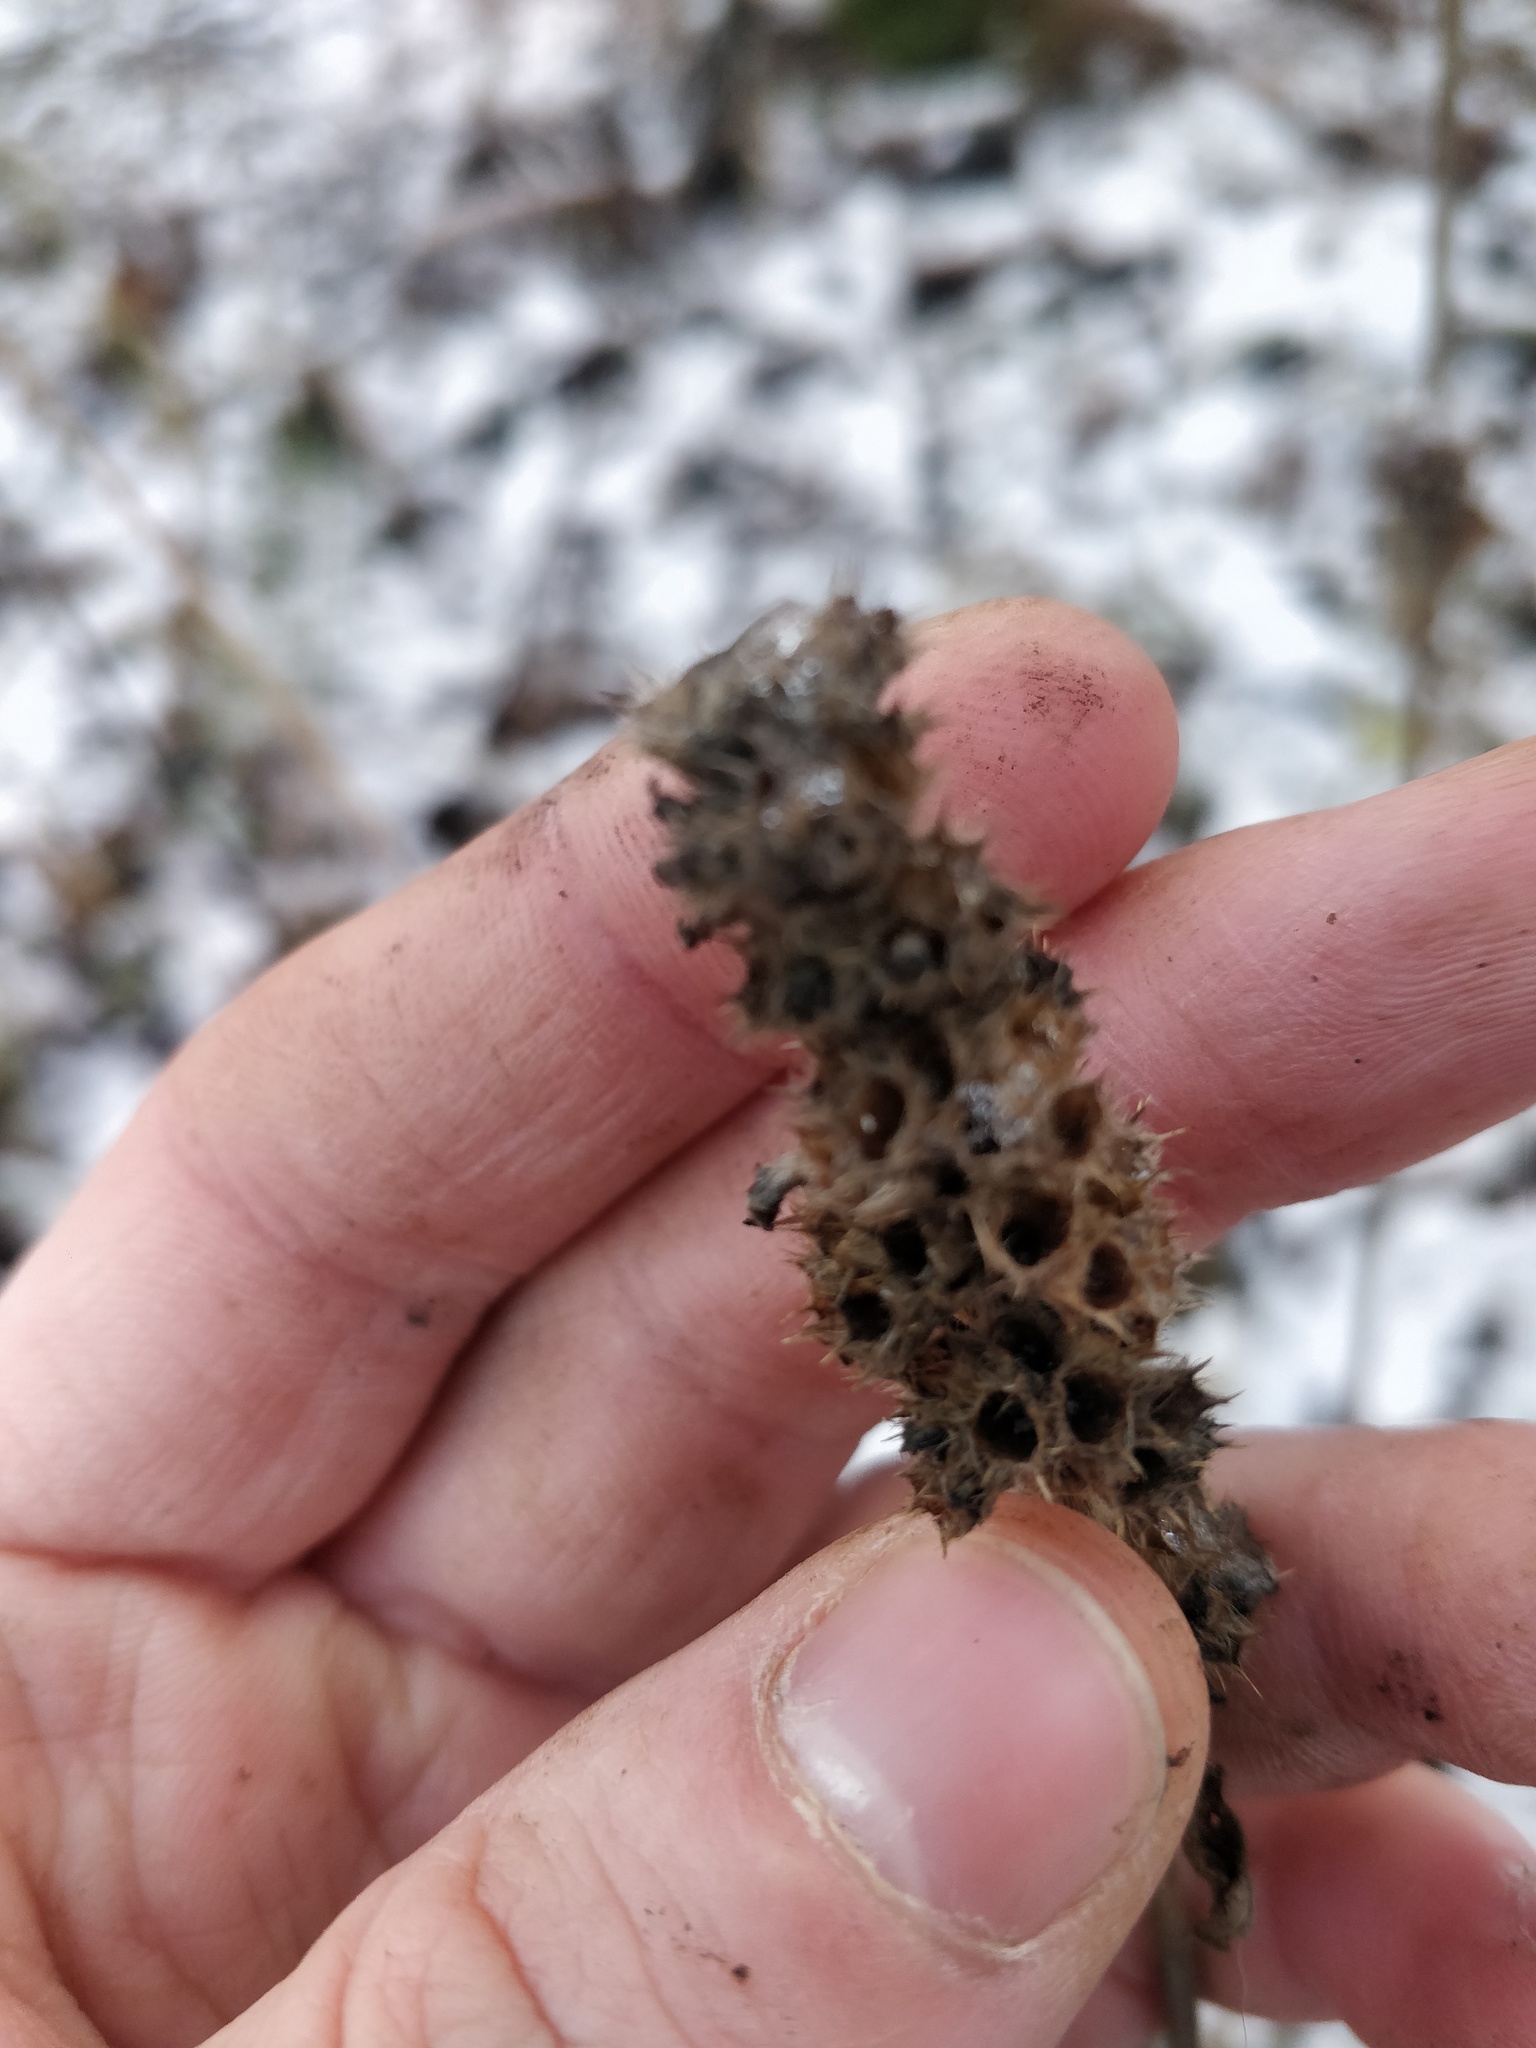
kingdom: Plantae
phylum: Tracheophyta
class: Magnoliopsida
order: Lamiales
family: Lamiaceae
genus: Betonica
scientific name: Betonica officinalis
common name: Bishop's-wort
